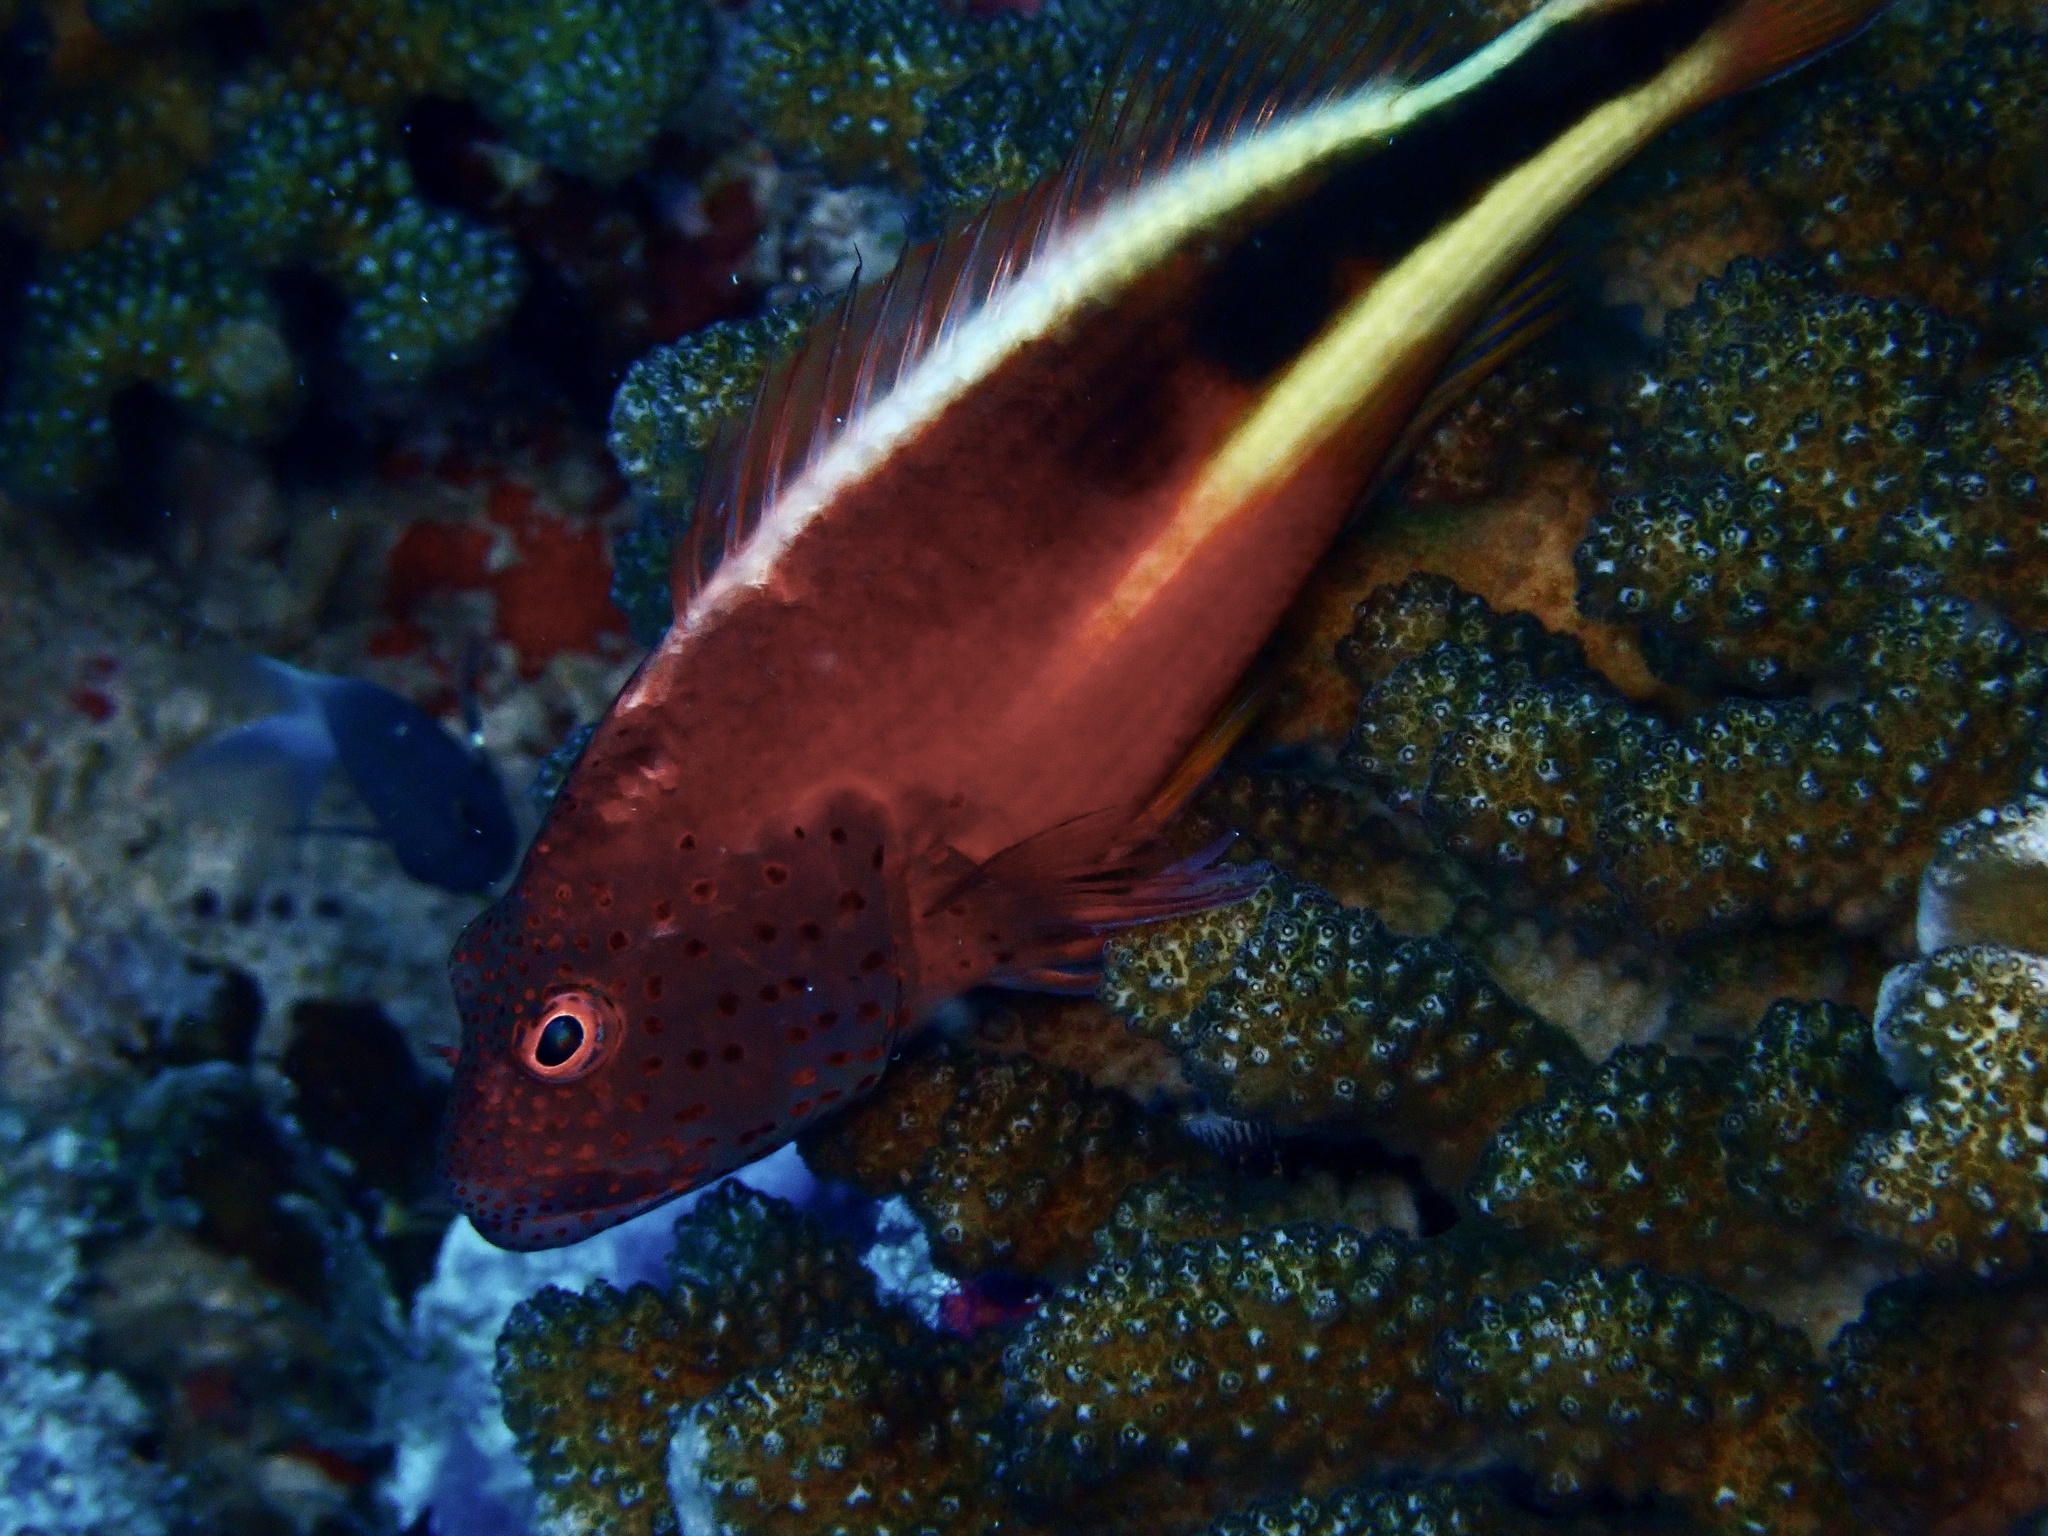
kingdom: Animalia
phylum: Chordata
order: Perciformes
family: Cirrhitidae
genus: Paracirrhites
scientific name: Paracirrhites forsteri
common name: Freckled hawkfish
